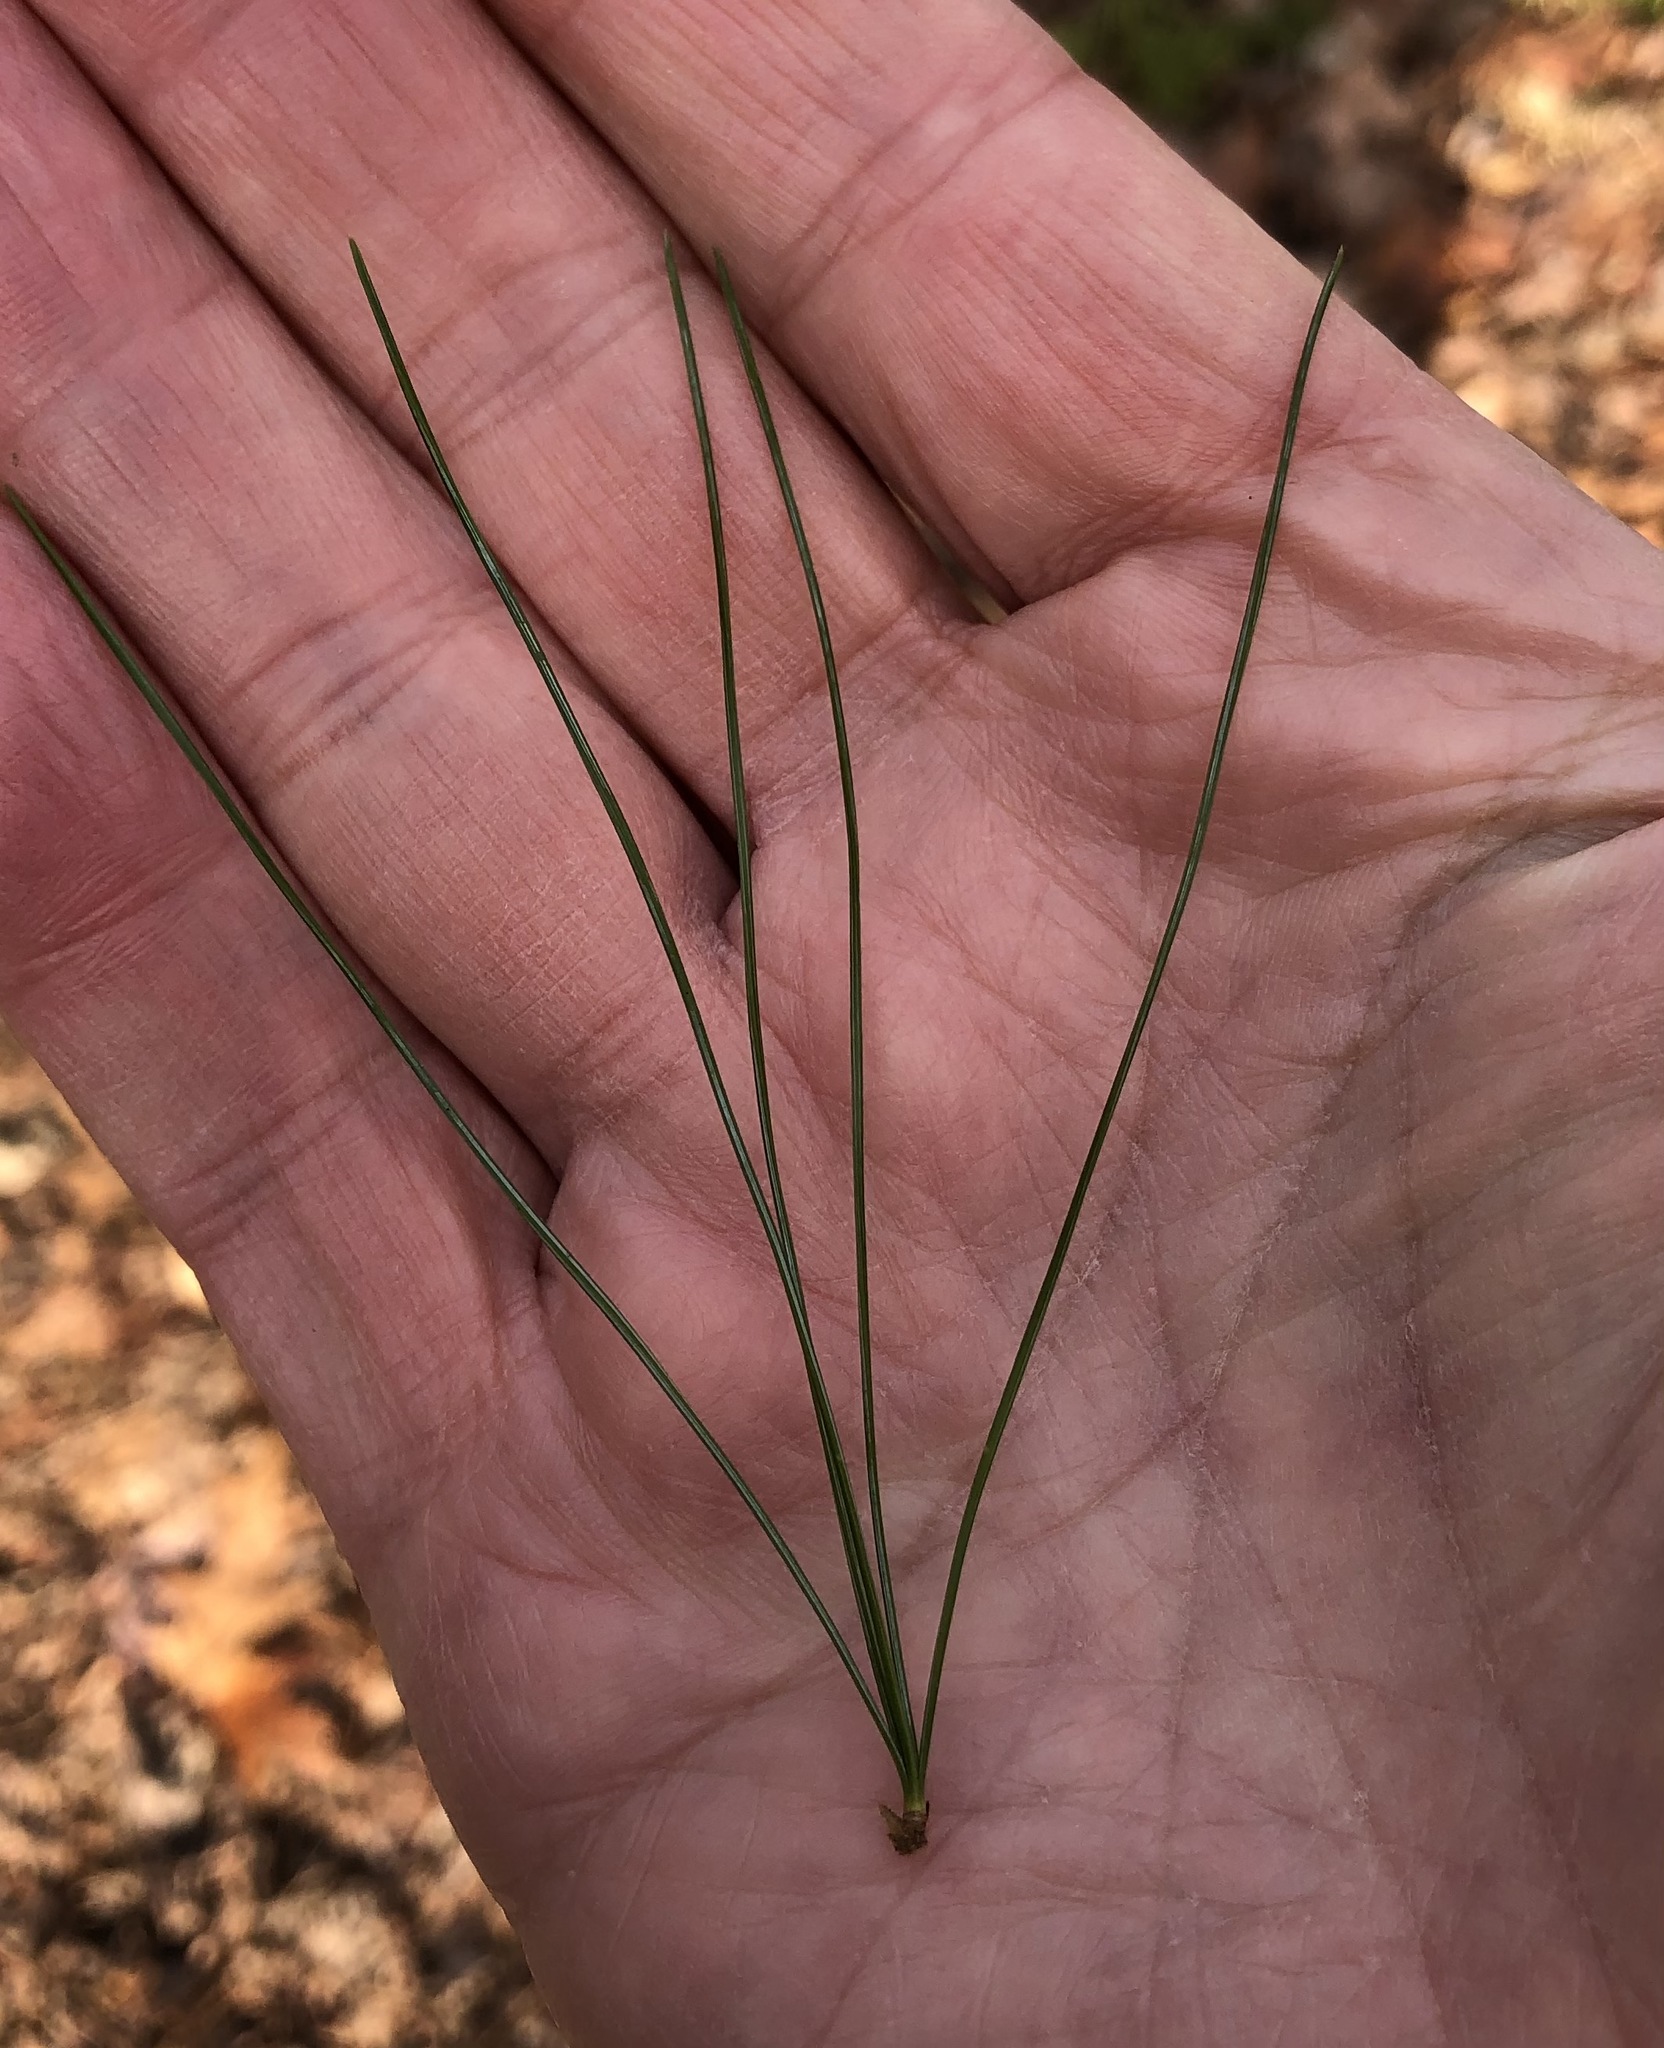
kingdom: Plantae
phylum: Tracheophyta
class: Pinopsida
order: Pinales
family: Pinaceae
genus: Pinus
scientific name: Pinus strobus
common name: Weymouth pine
